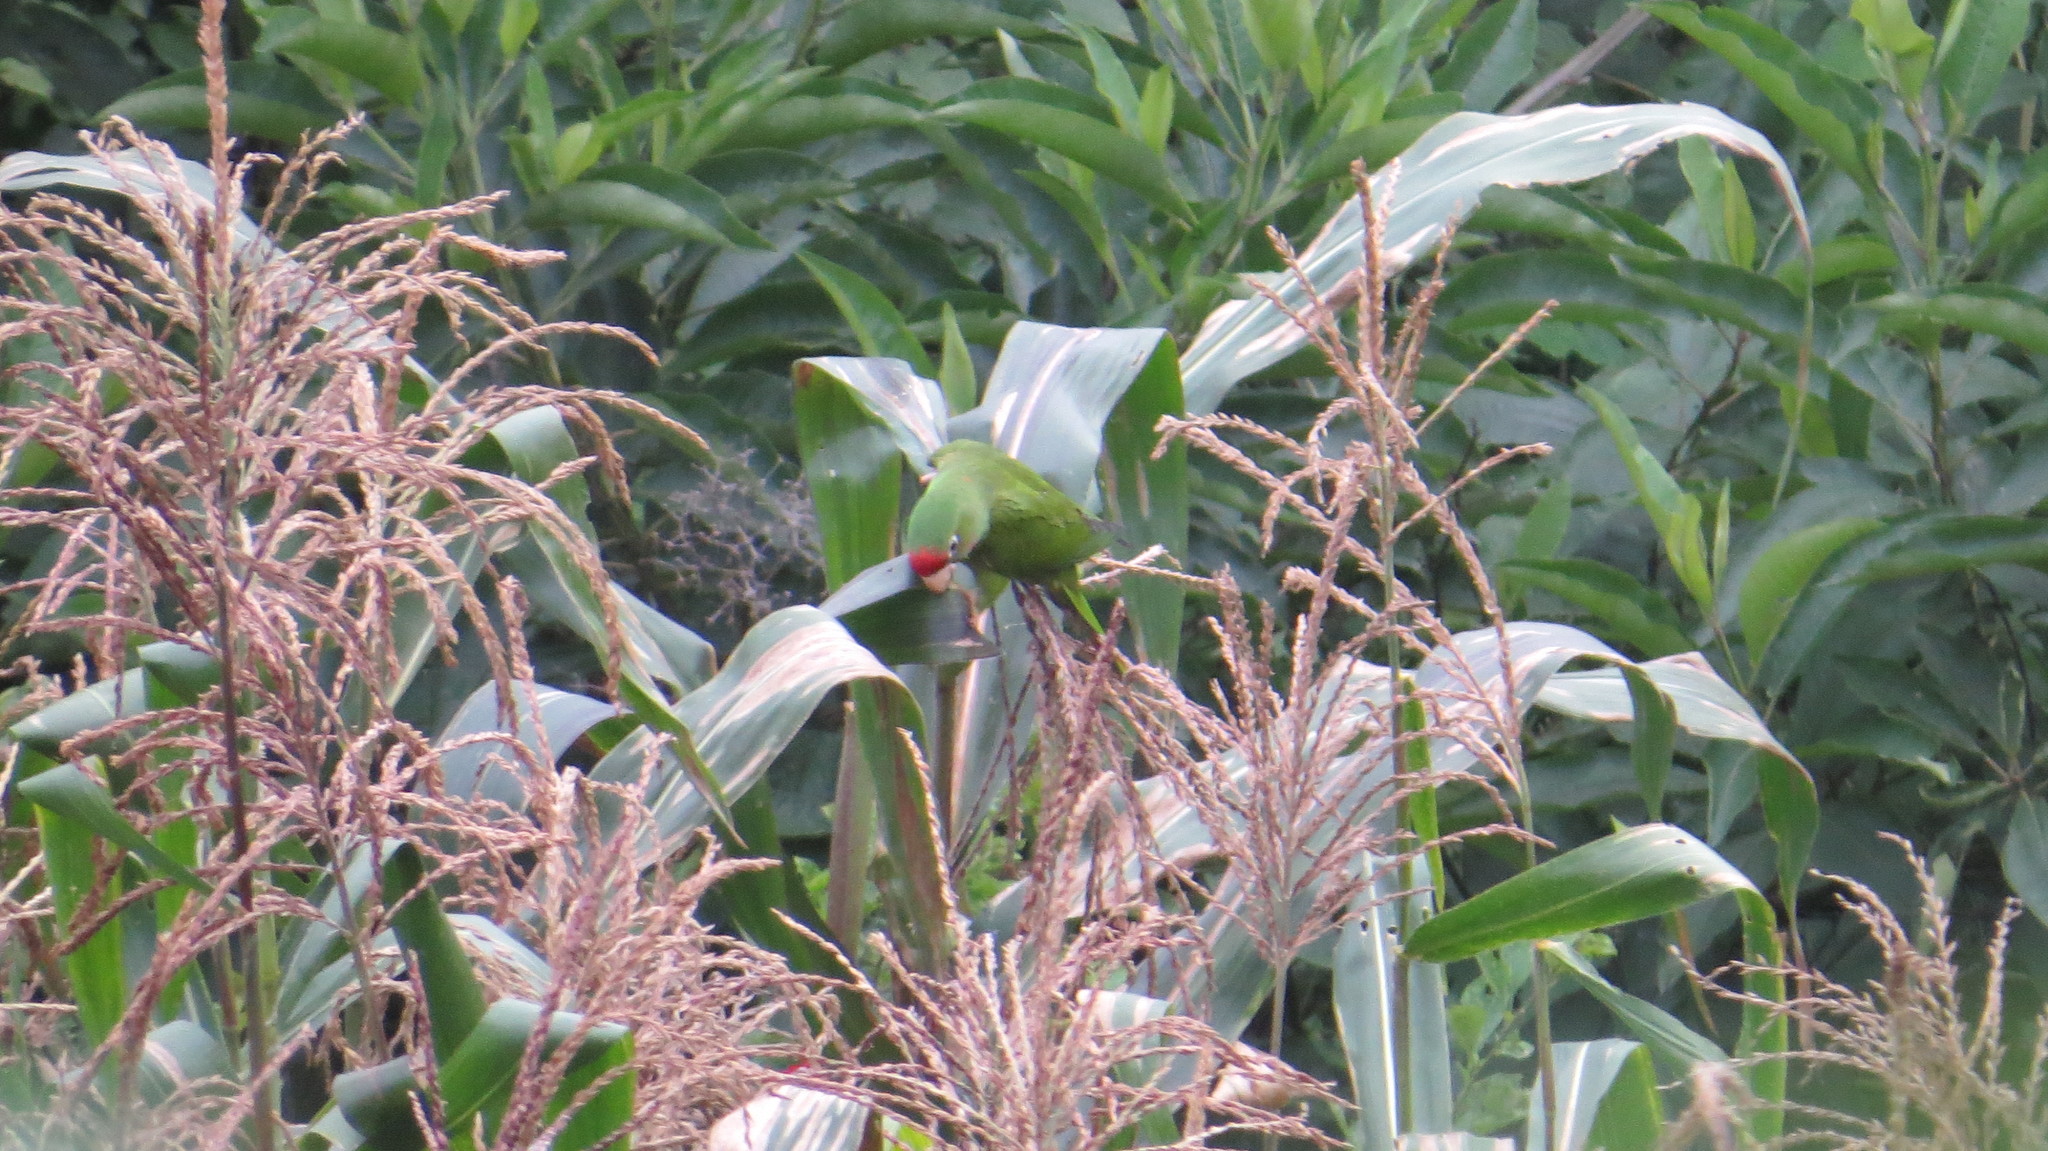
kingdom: Animalia
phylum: Chordata
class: Aves
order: Psittaciformes
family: Psittacidae
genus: Aratinga
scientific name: Aratinga mitrata
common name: Mitred parakeet
